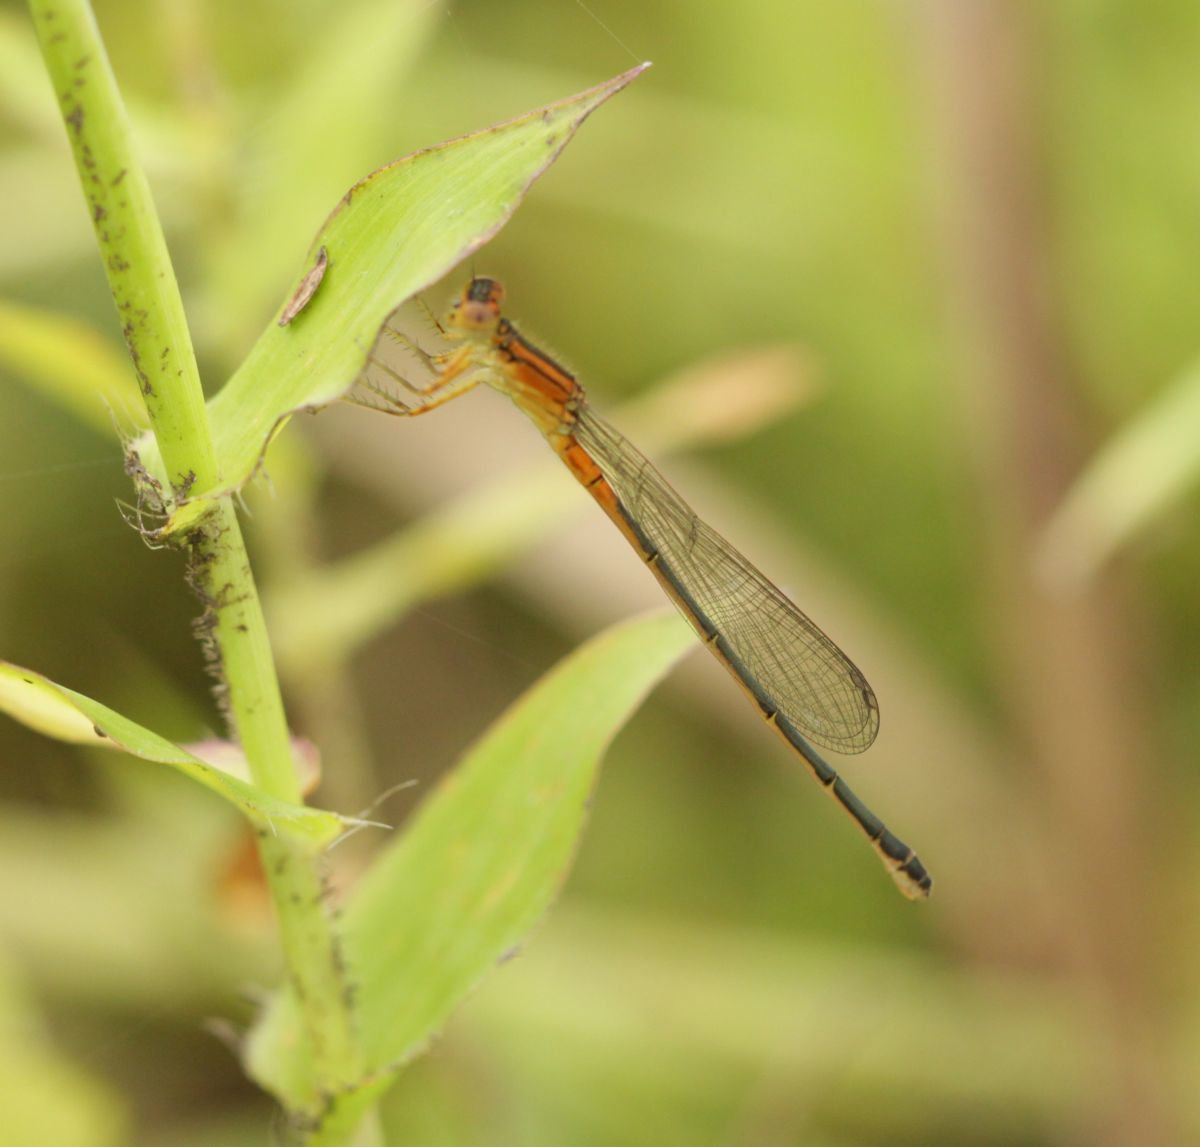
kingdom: Animalia
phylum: Arthropoda
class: Insecta
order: Odonata
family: Coenagrionidae
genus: Ischnura
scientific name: Ischnura verticalis
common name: Eastern forktail
